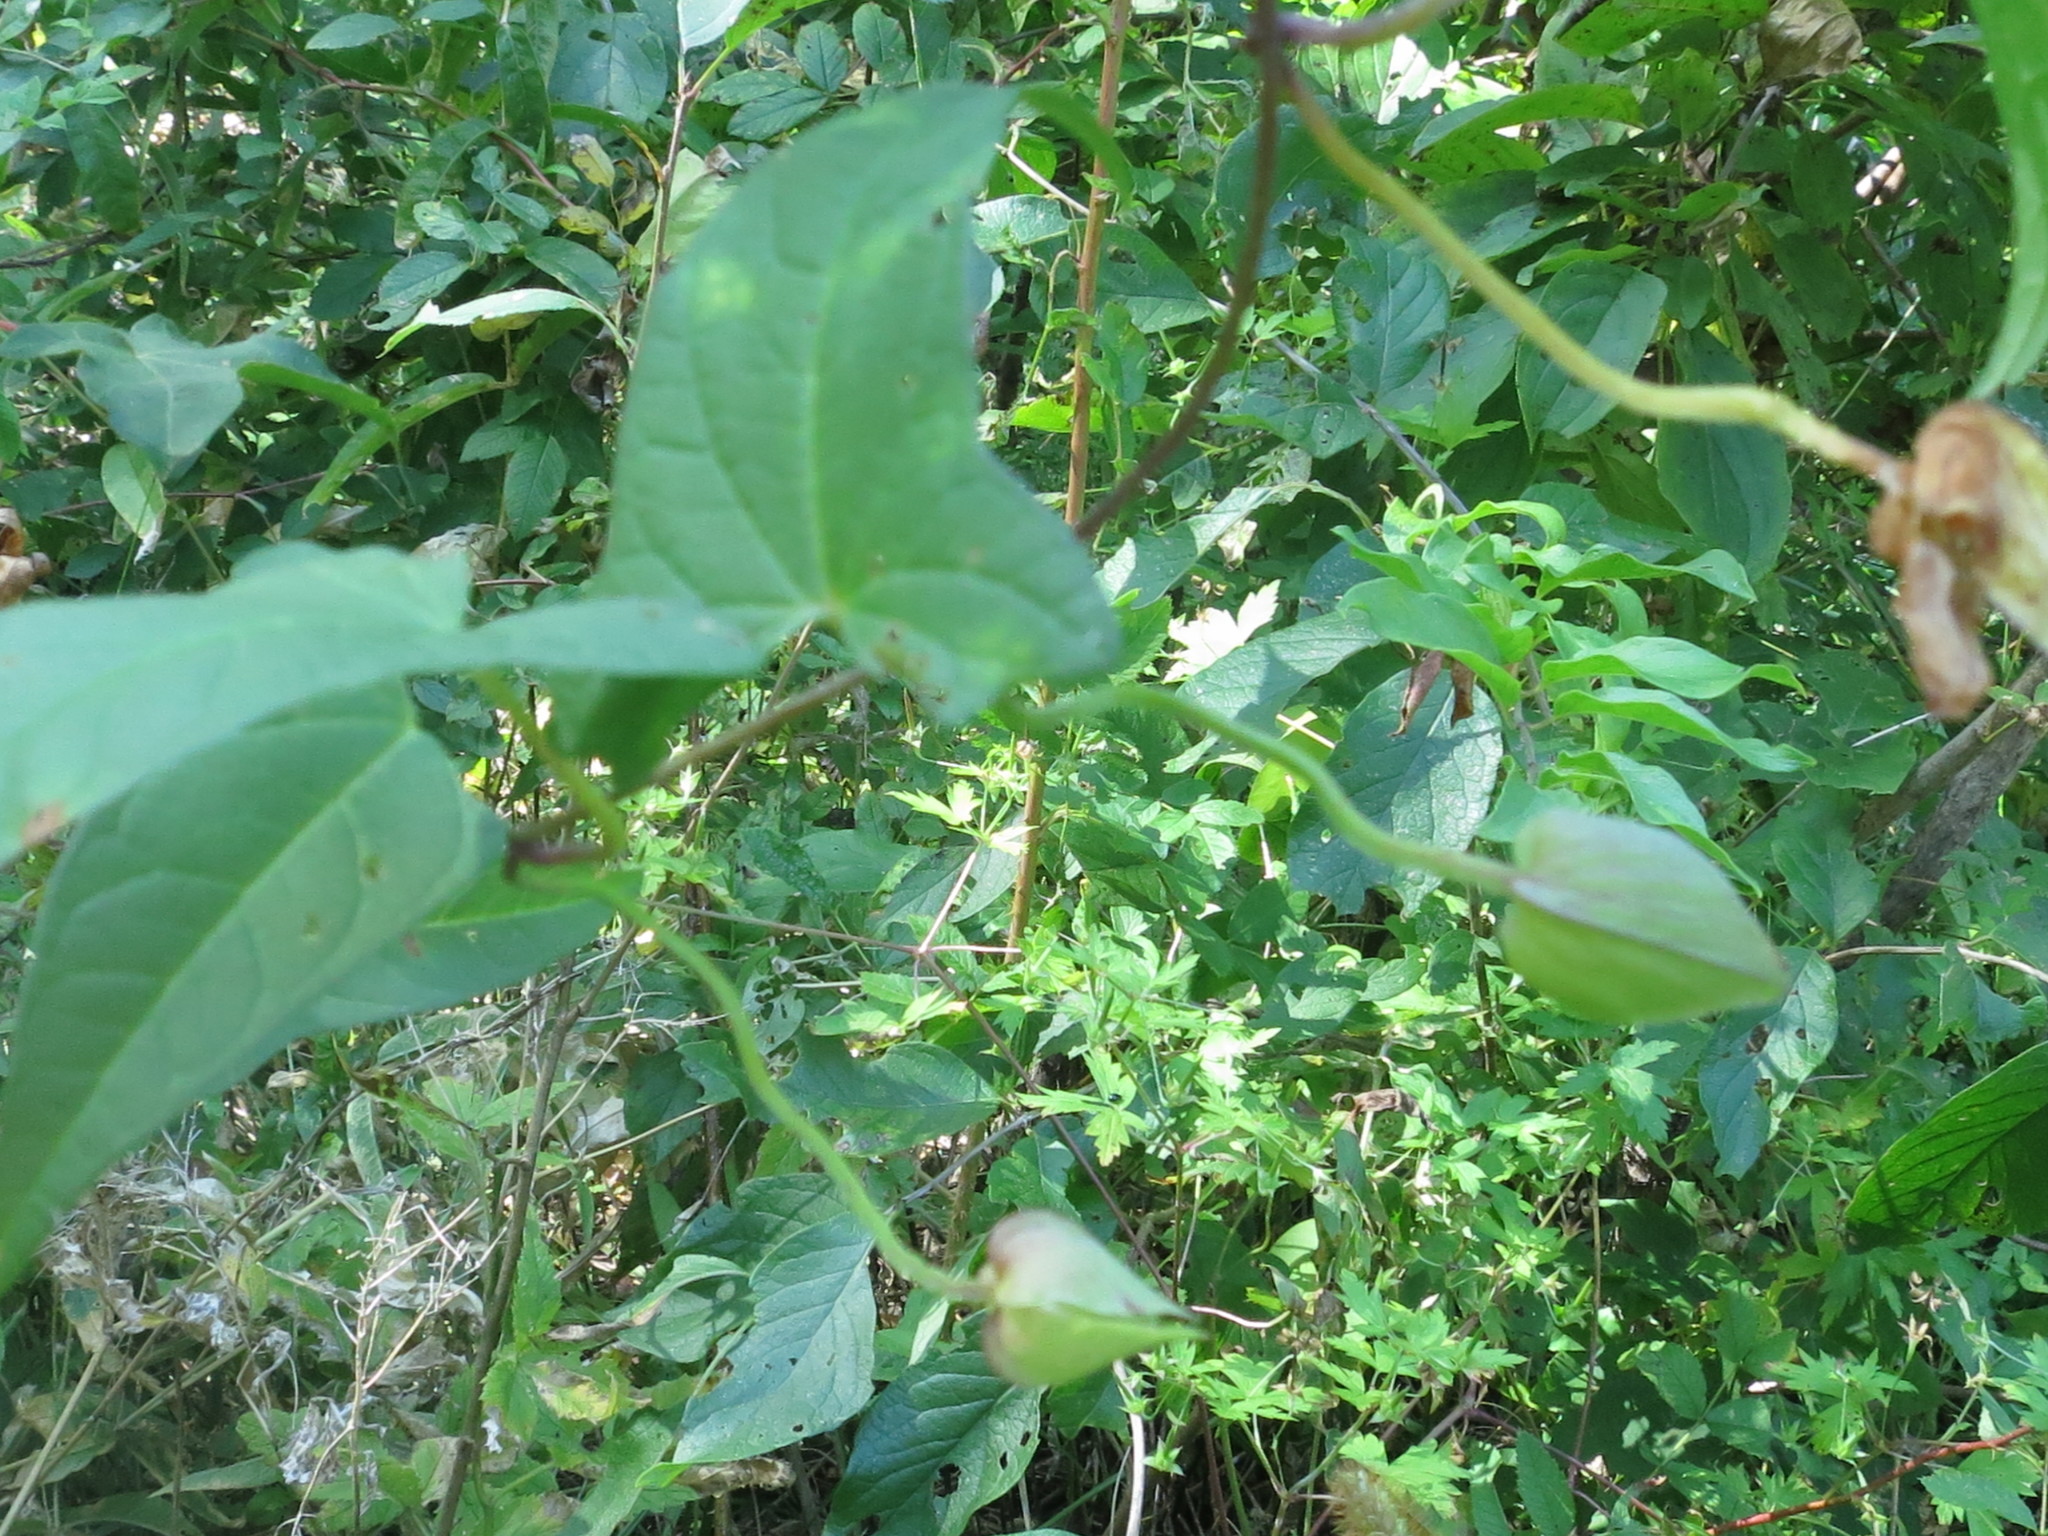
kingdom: Plantae
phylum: Tracheophyta
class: Magnoliopsida
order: Solanales
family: Convolvulaceae
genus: Calystegia
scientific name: Calystegia sepium
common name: Hedge bindweed
